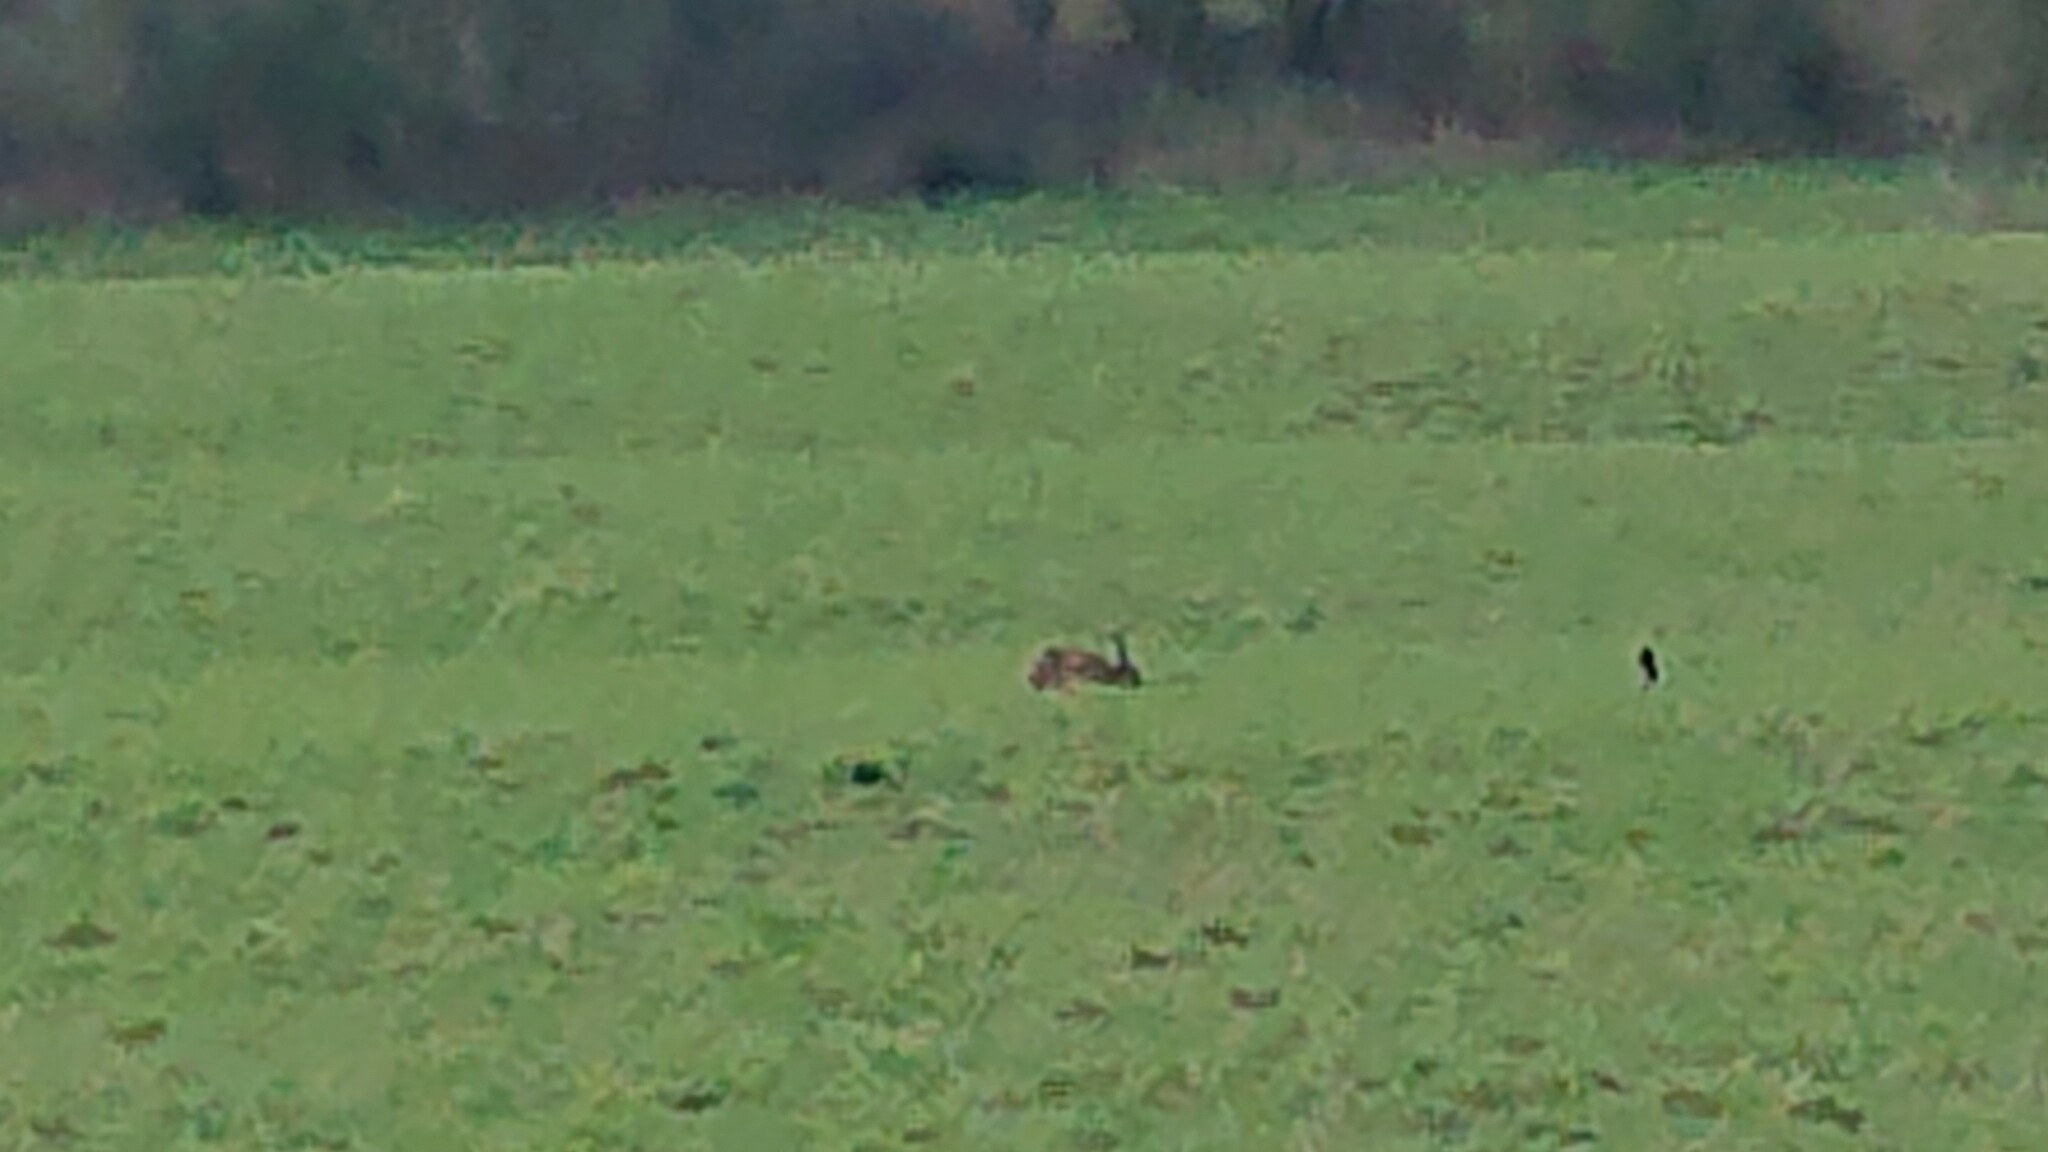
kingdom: Animalia
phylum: Chordata
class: Mammalia
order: Lagomorpha
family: Leporidae
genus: Lepus
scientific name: Lepus europaeus
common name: European hare
